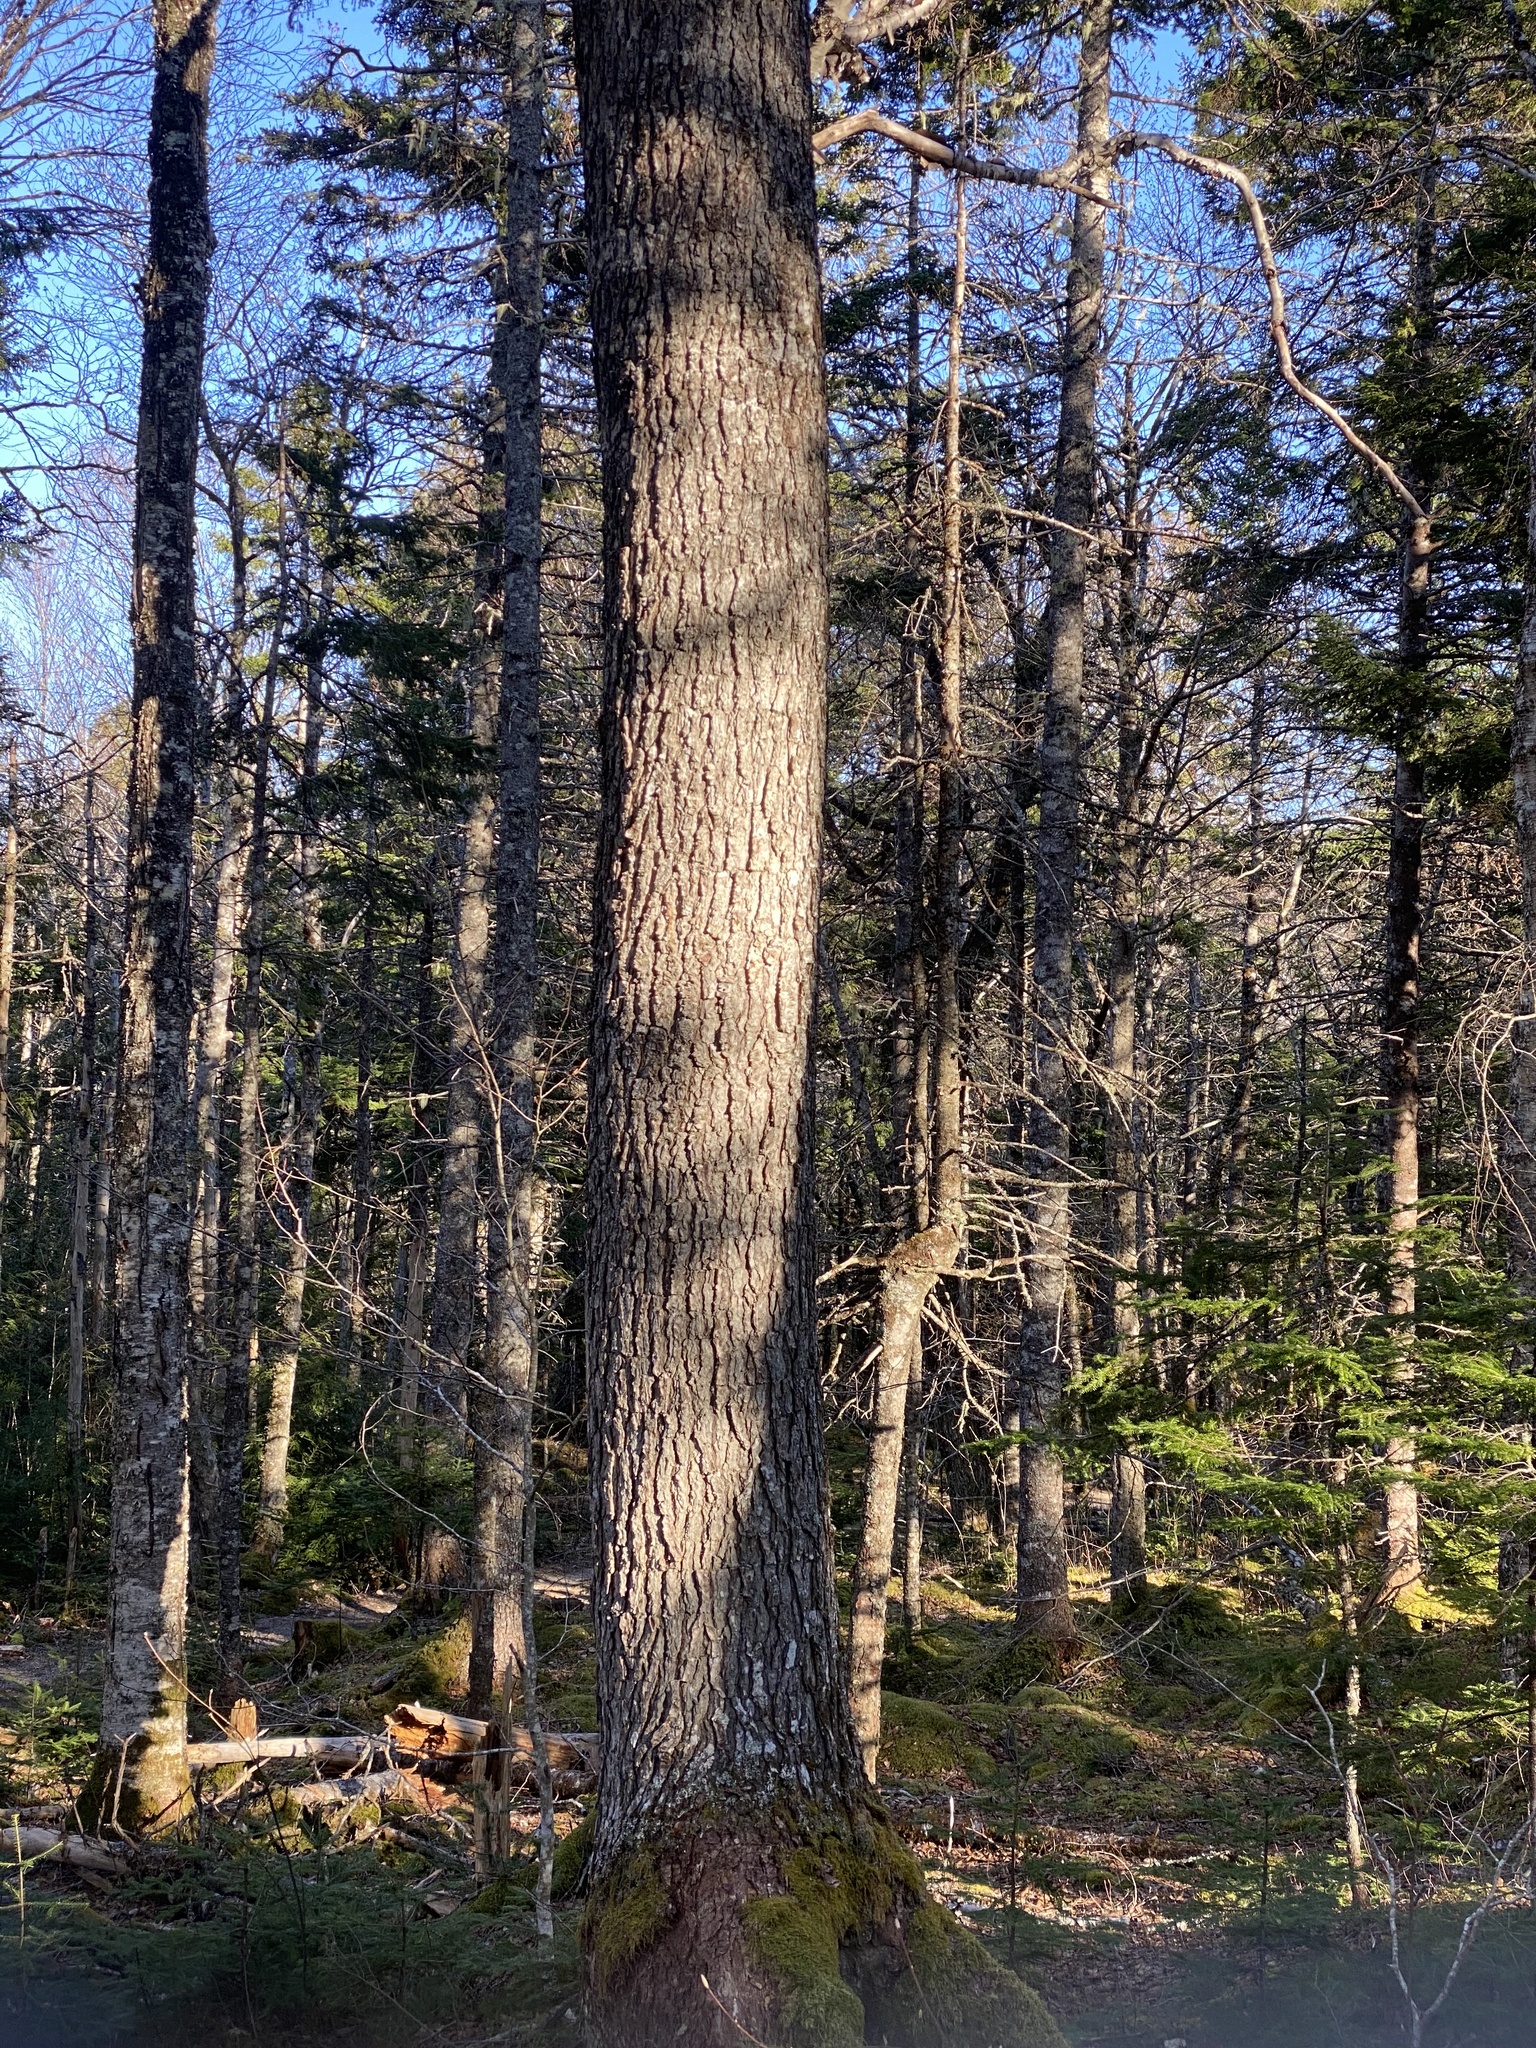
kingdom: Plantae
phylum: Tracheophyta
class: Pinopsida
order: Pinales
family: Pinaceae
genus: Tsuga
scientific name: Tsuga canadensis
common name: Eastern hemlock
